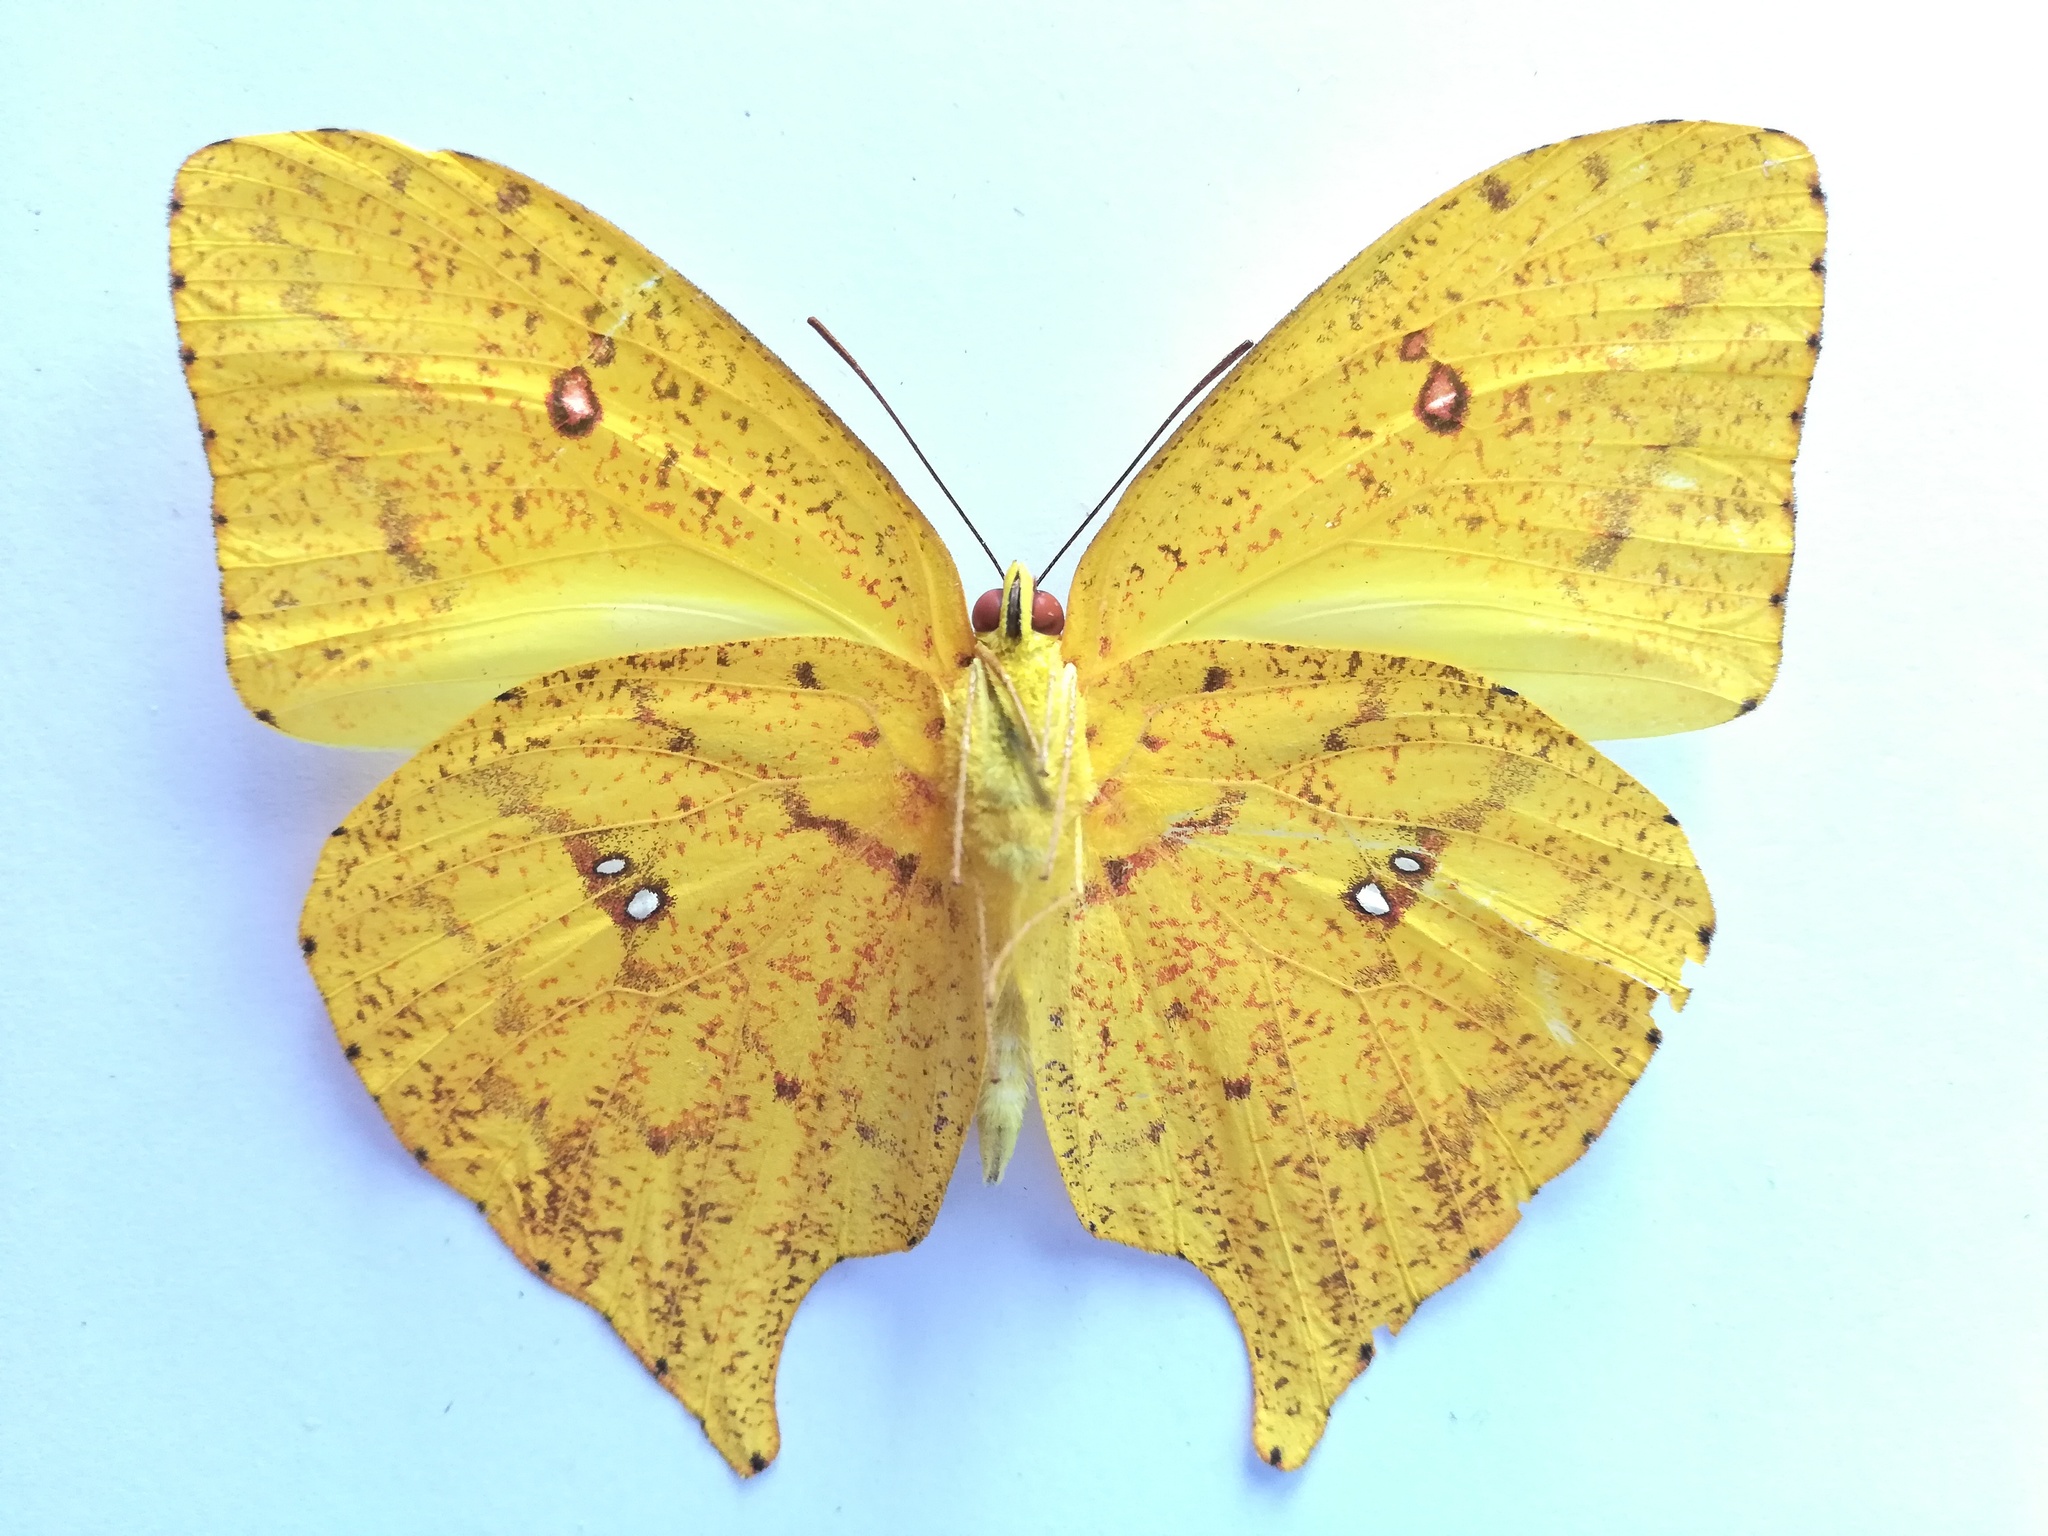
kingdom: Animalia
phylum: Arthropoda
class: Insecta
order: Lepidoptera
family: Pieridae
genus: Phoebis
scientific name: Phoebis virgo
